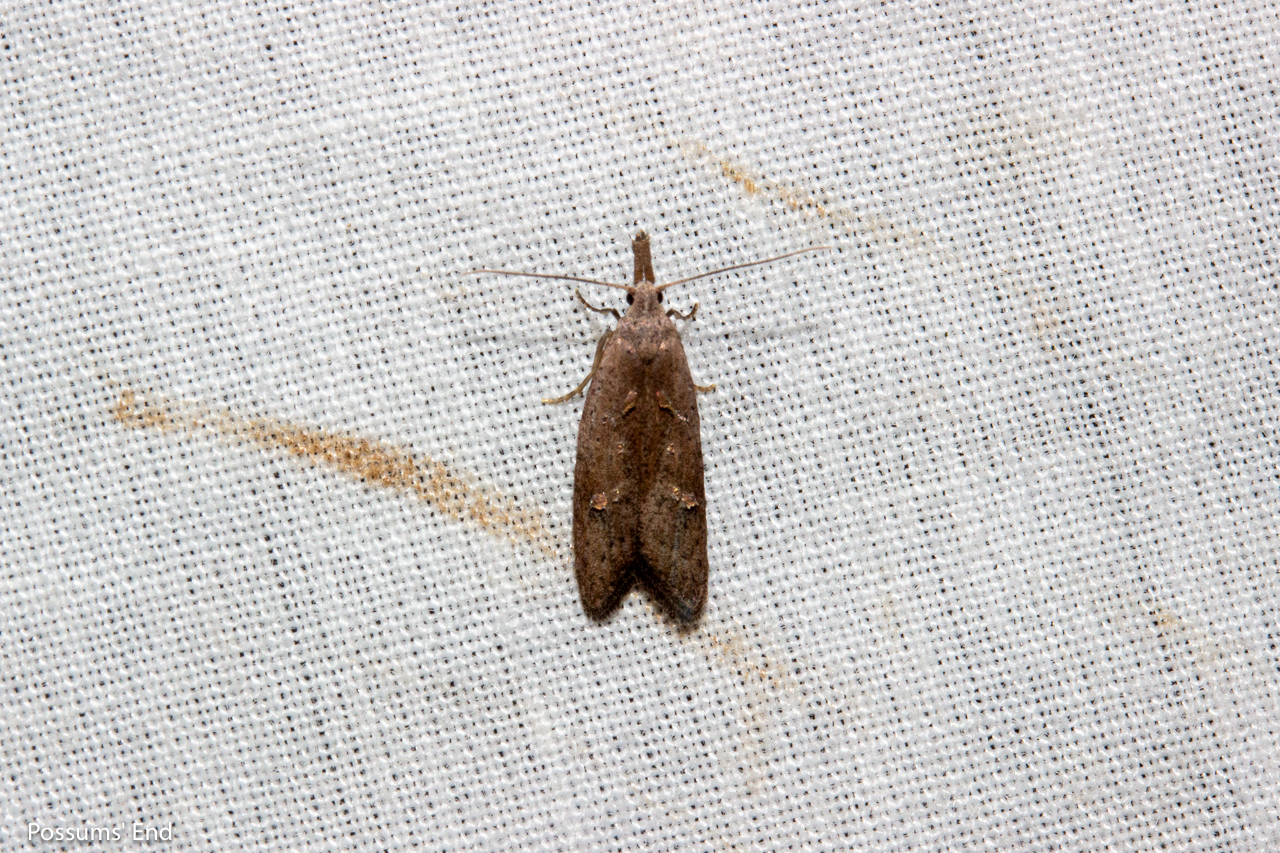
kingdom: Animalia
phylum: Arthropoda
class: Insecta
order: Lepidoptera
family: Carposinidae
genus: Carposina
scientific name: Carposina rubophaga
